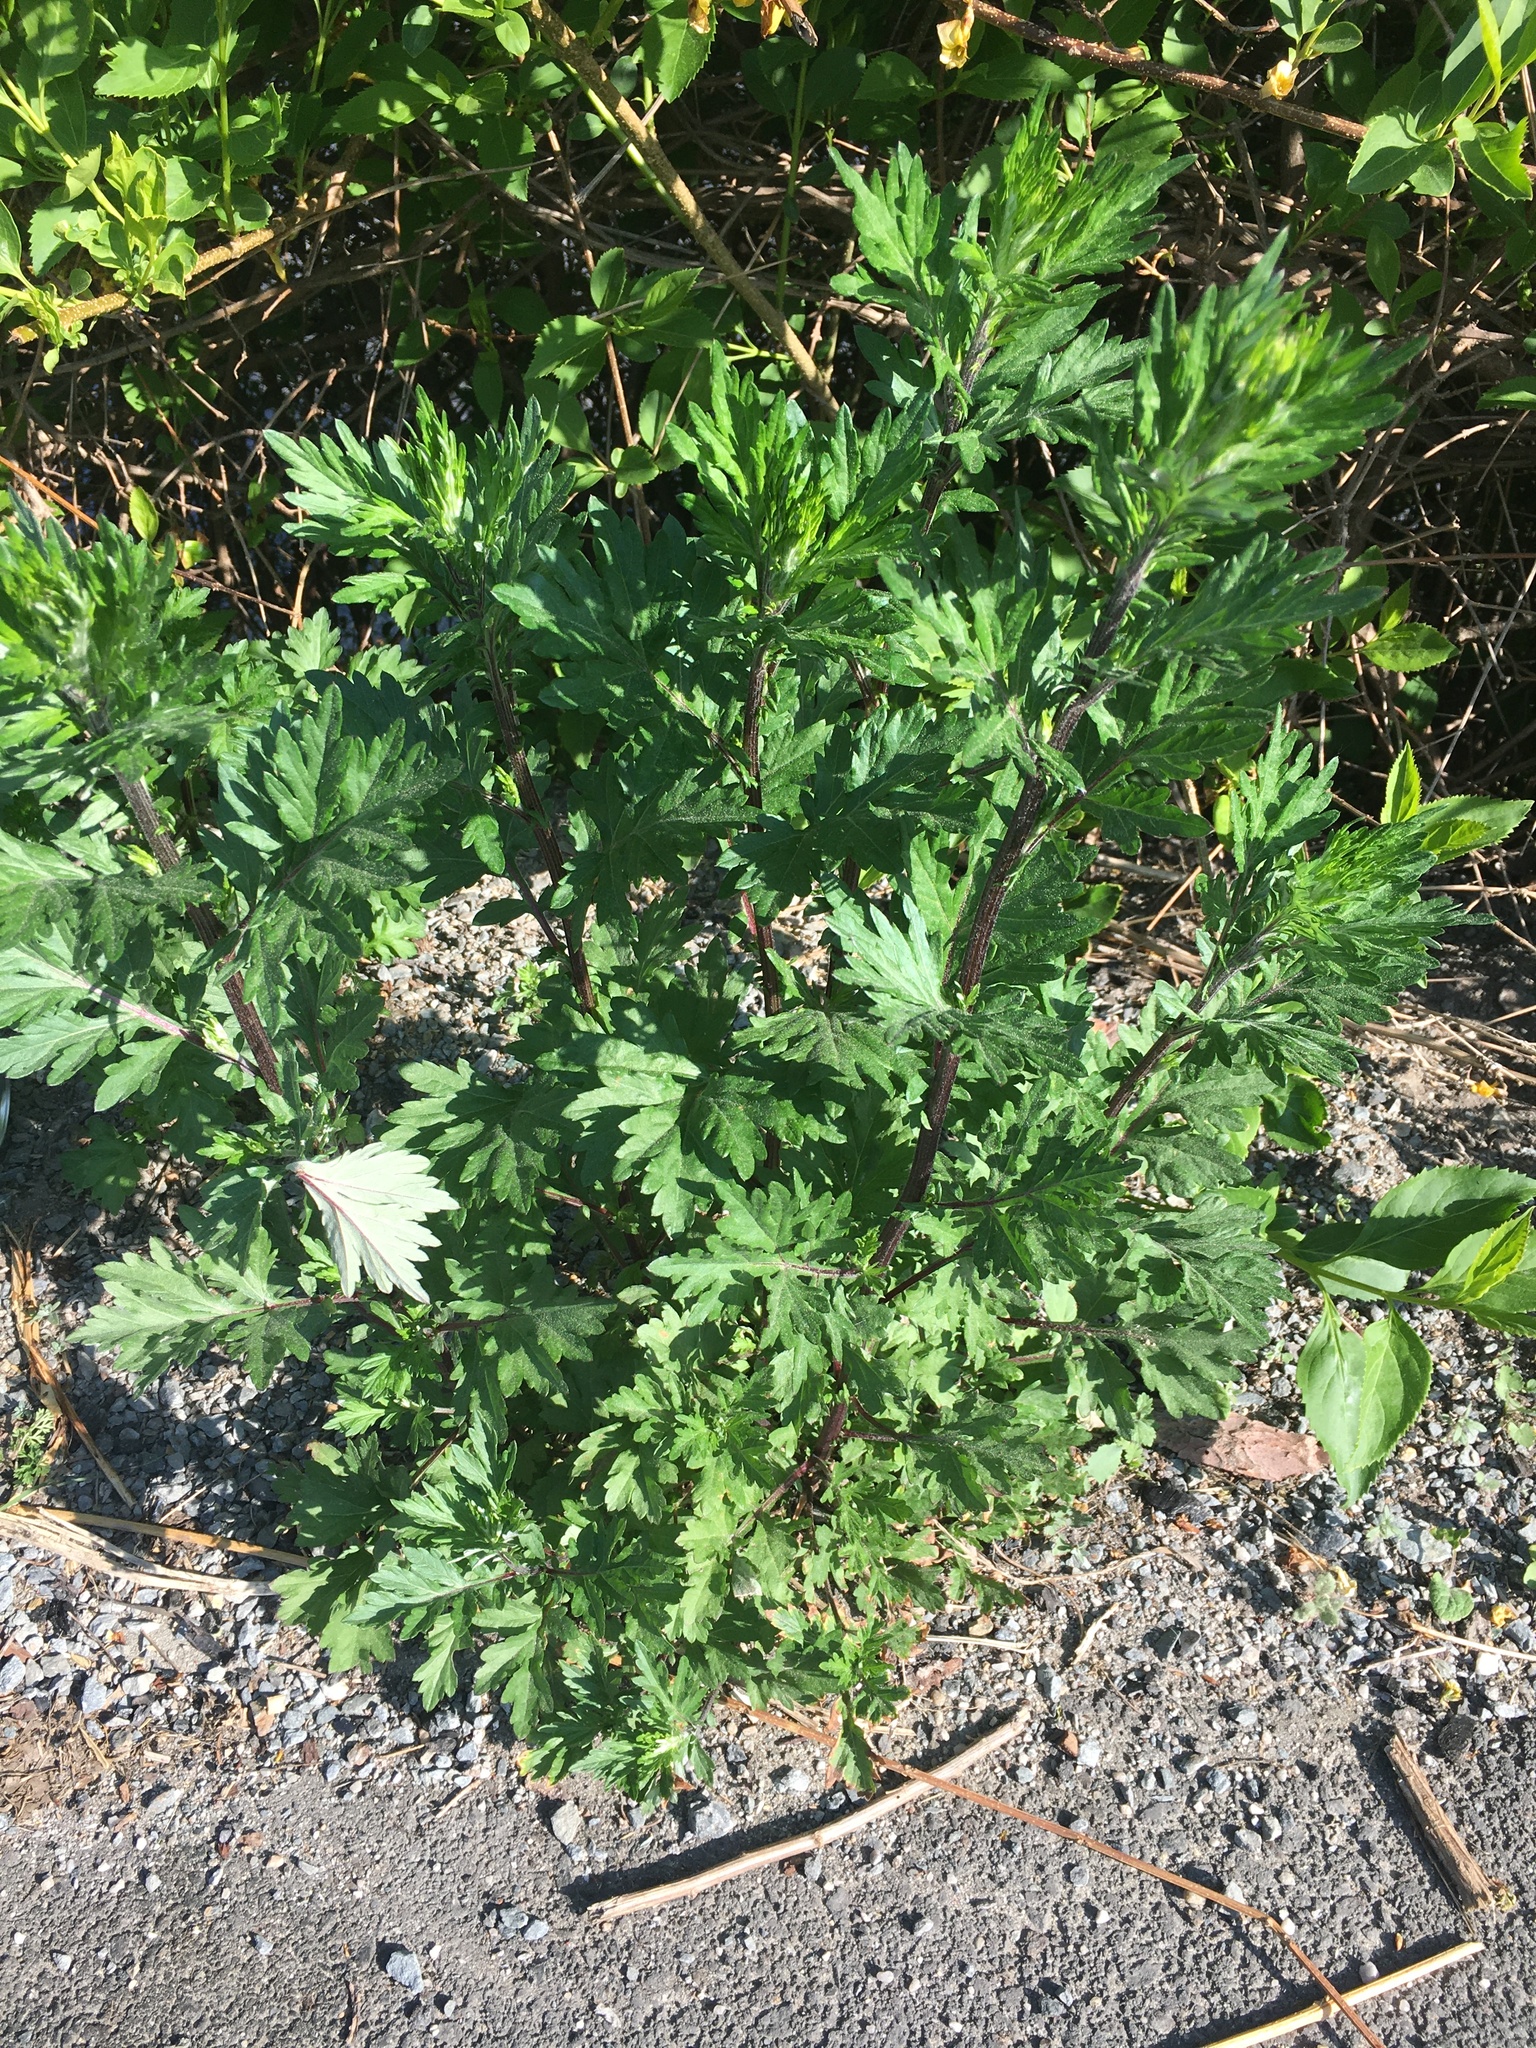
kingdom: Plantae
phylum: Tracheophyta
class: Magnoliopsida
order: Asterales
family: Asteraceae
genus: Artemisia
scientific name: Artemisia vulgaris
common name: Mugwort
